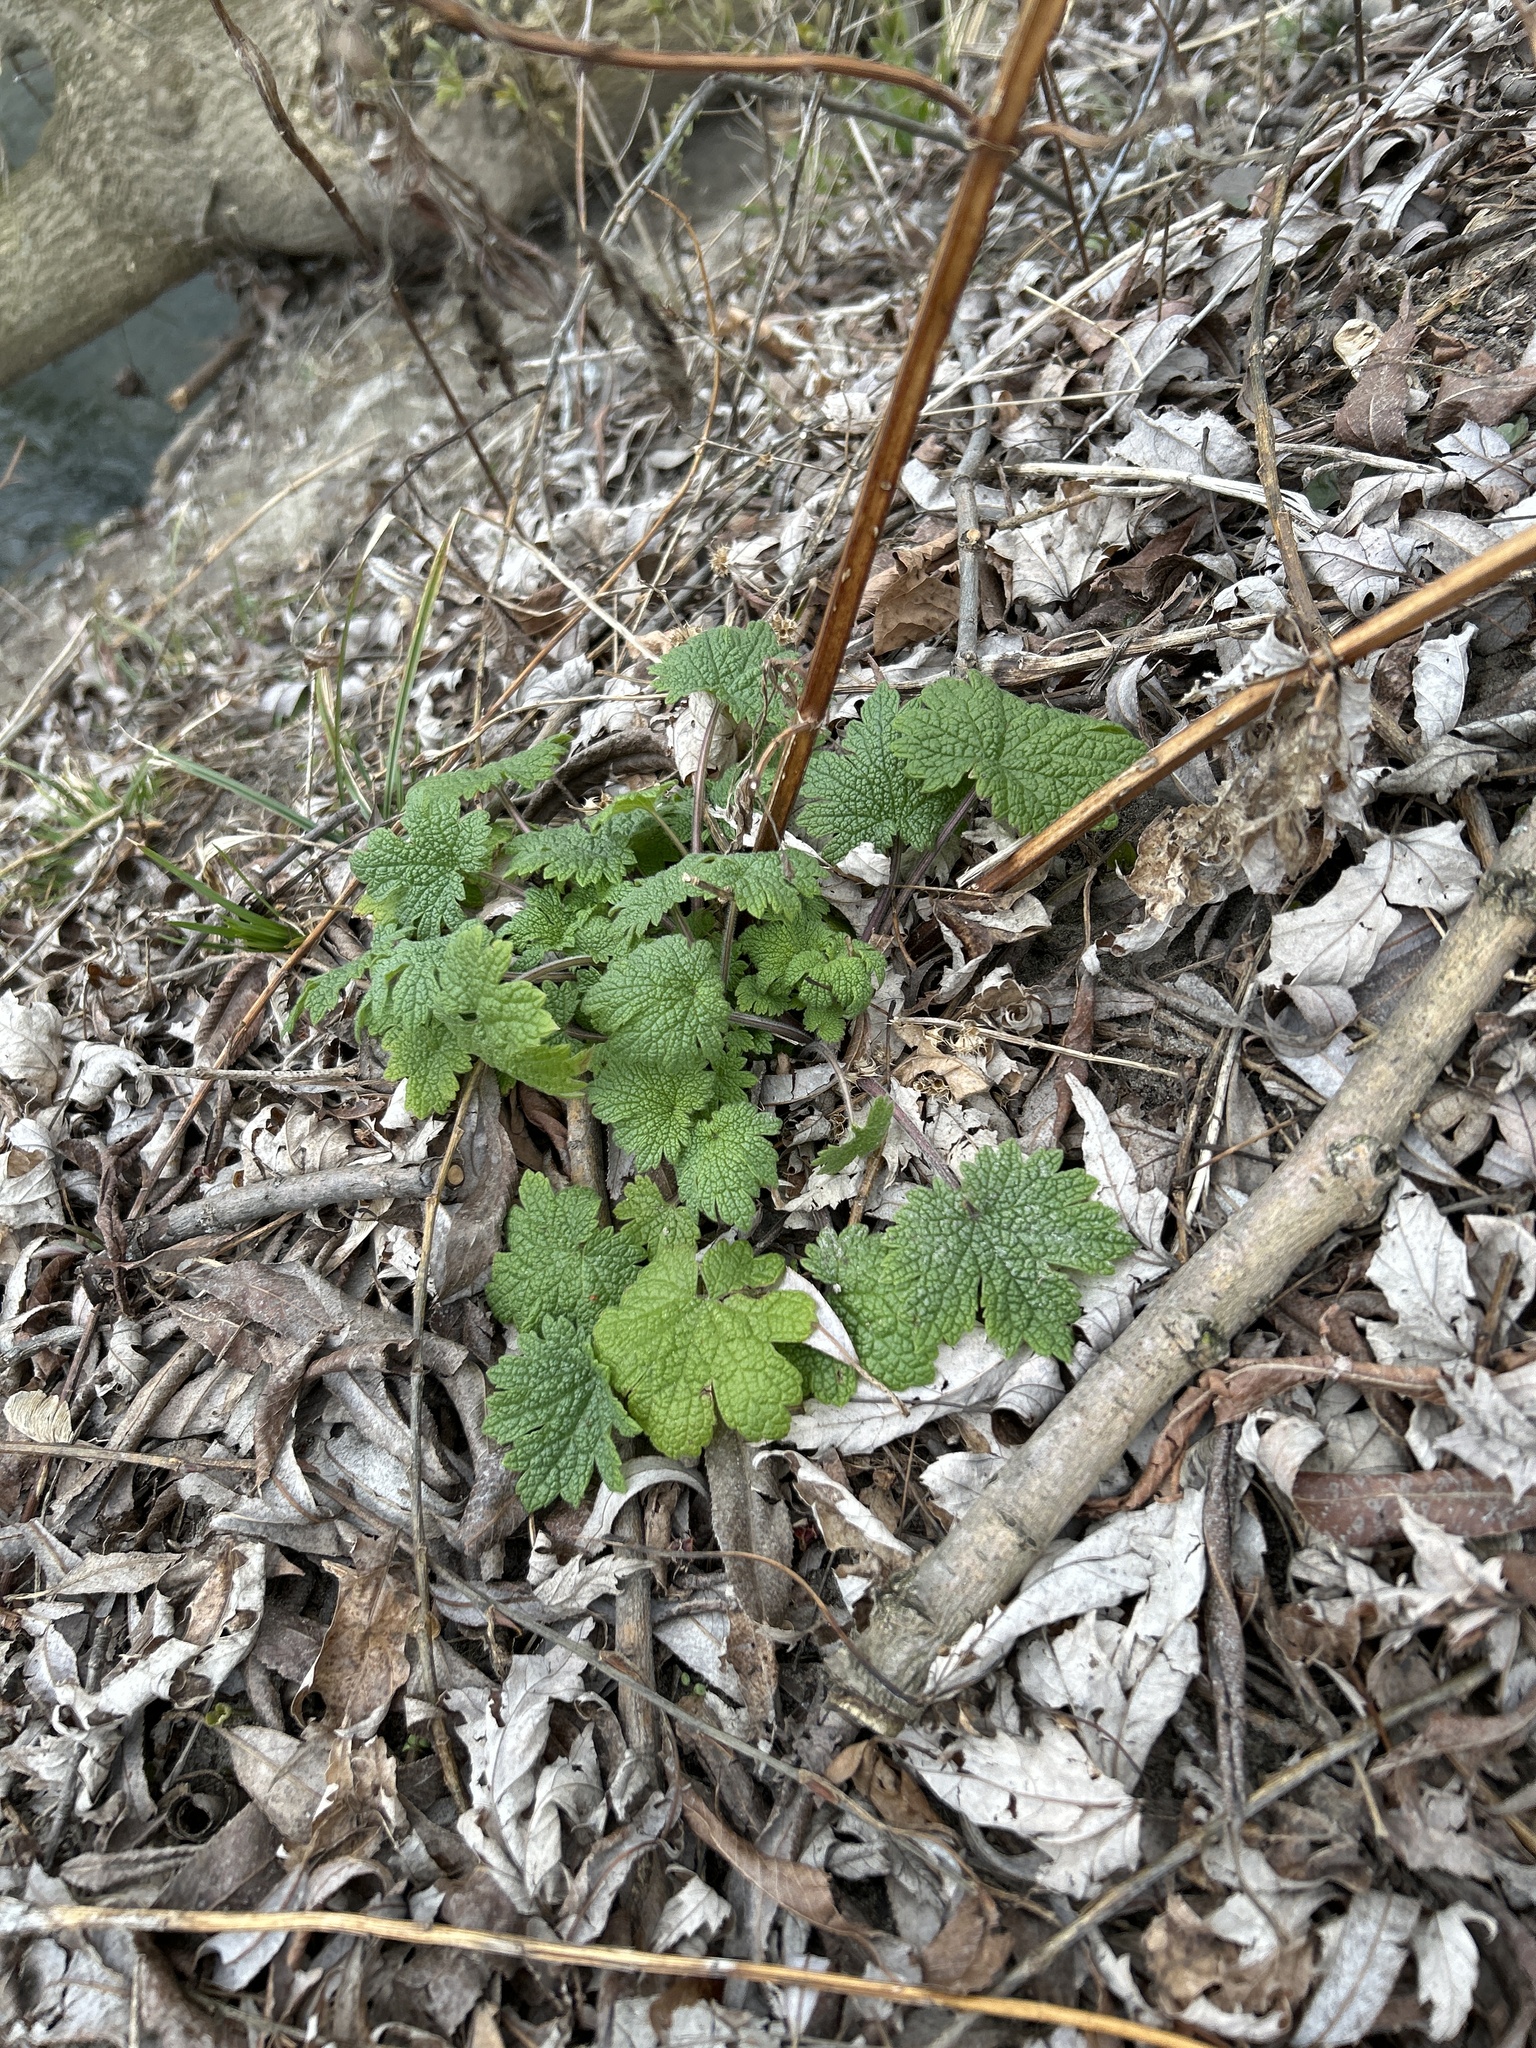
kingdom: Plantae
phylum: Tracheophyta
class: Magnoliopsida
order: Lamiales
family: Lamiaceae
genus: Leonurus
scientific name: Leonurus cardiaca
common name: Motherwort
